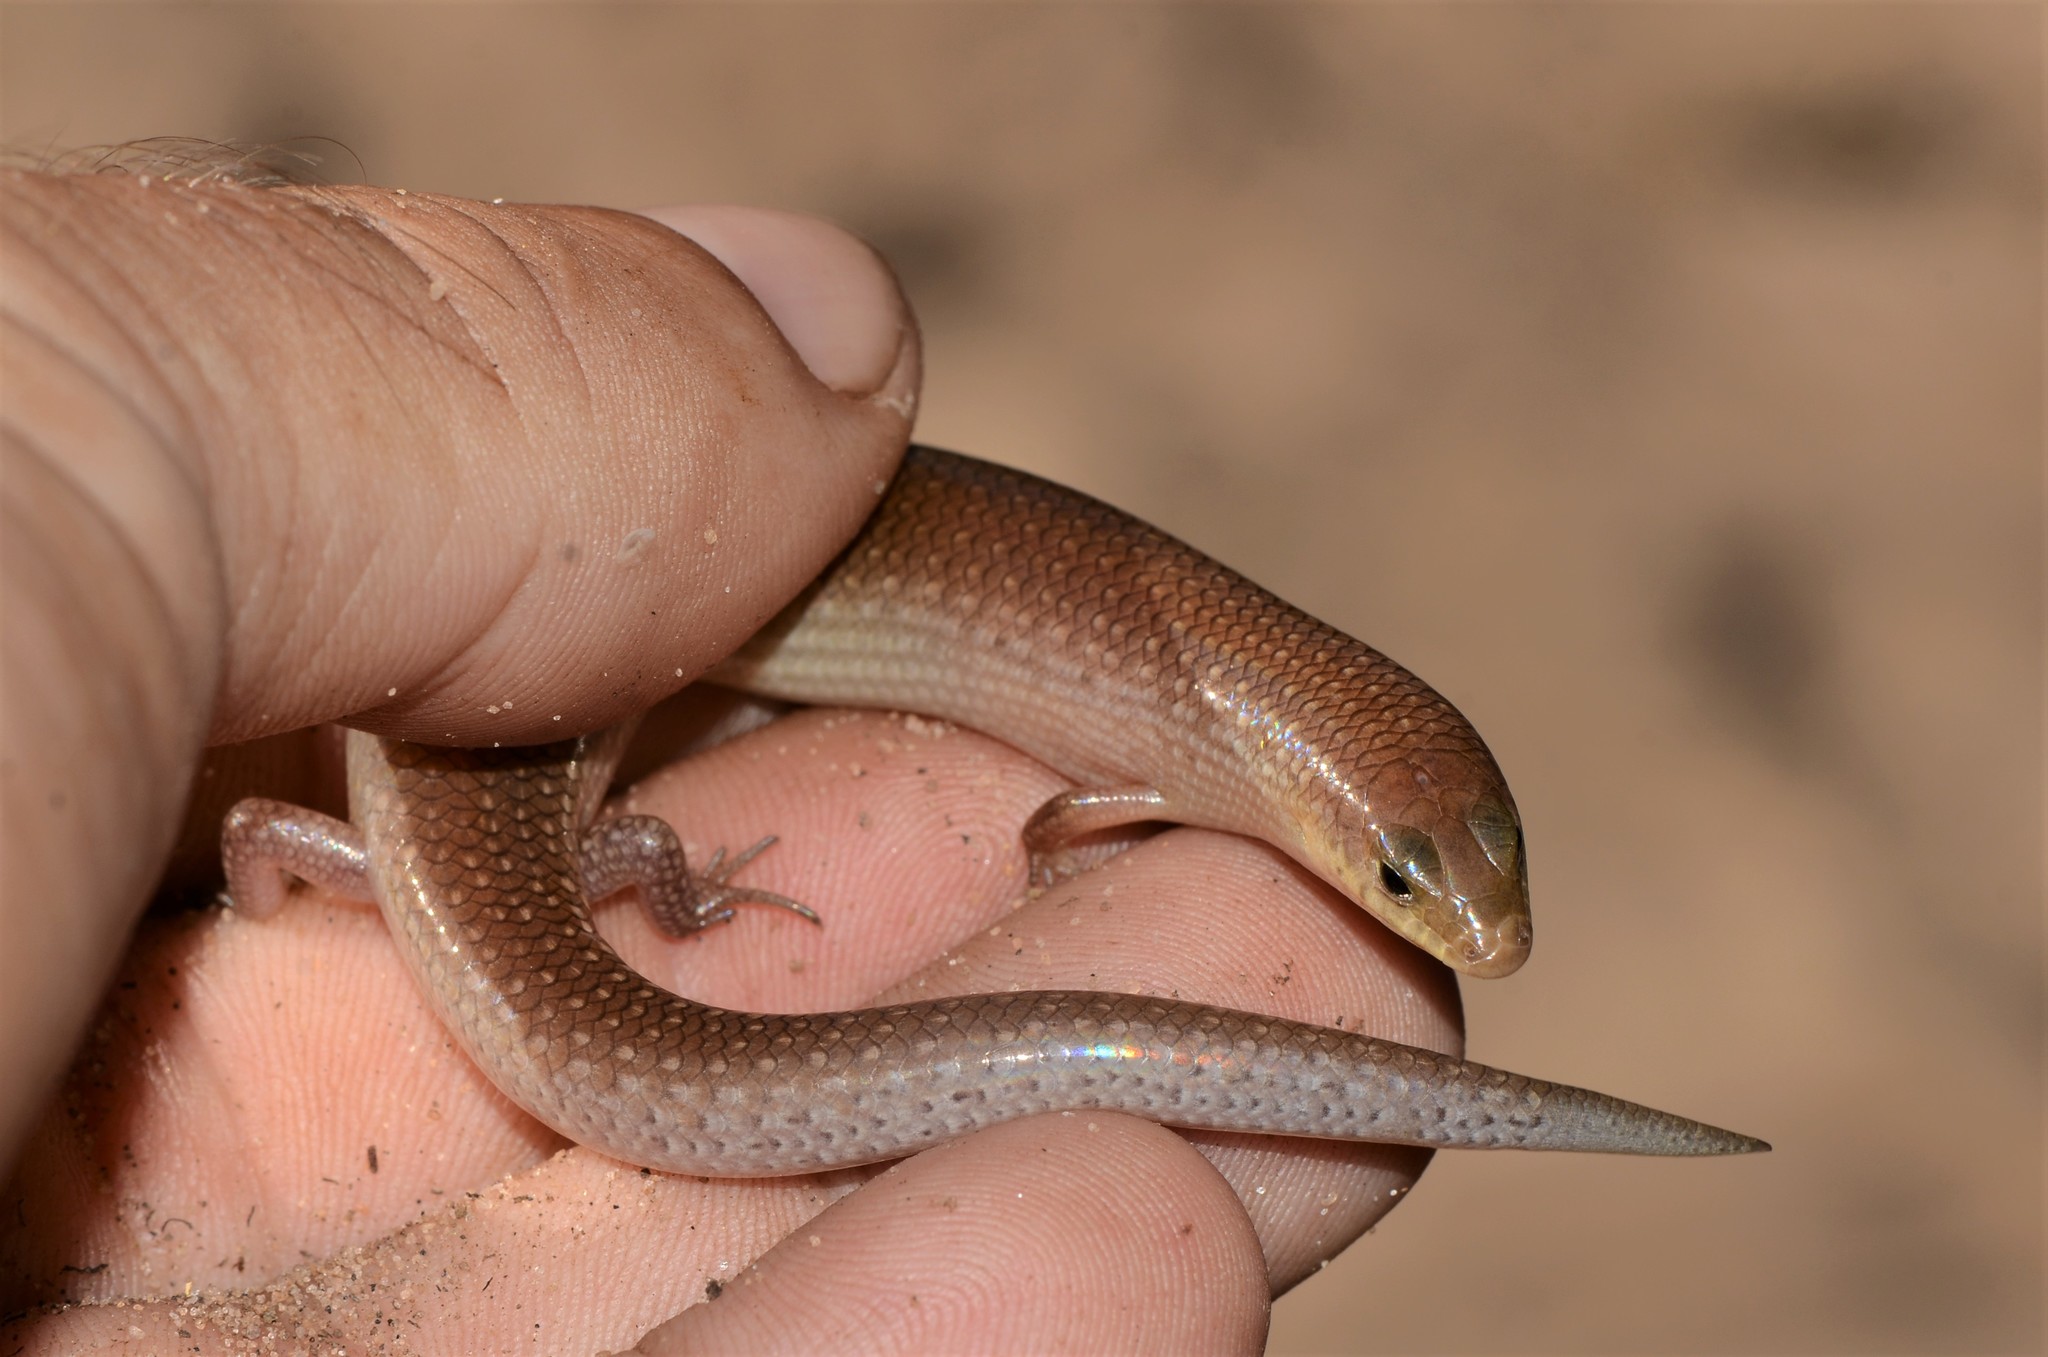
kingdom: Animalia
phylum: Chordata
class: Squamata
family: Scincidae
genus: Mochlus
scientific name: Mochlus sundevallii
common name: Peters' eyelid skink
